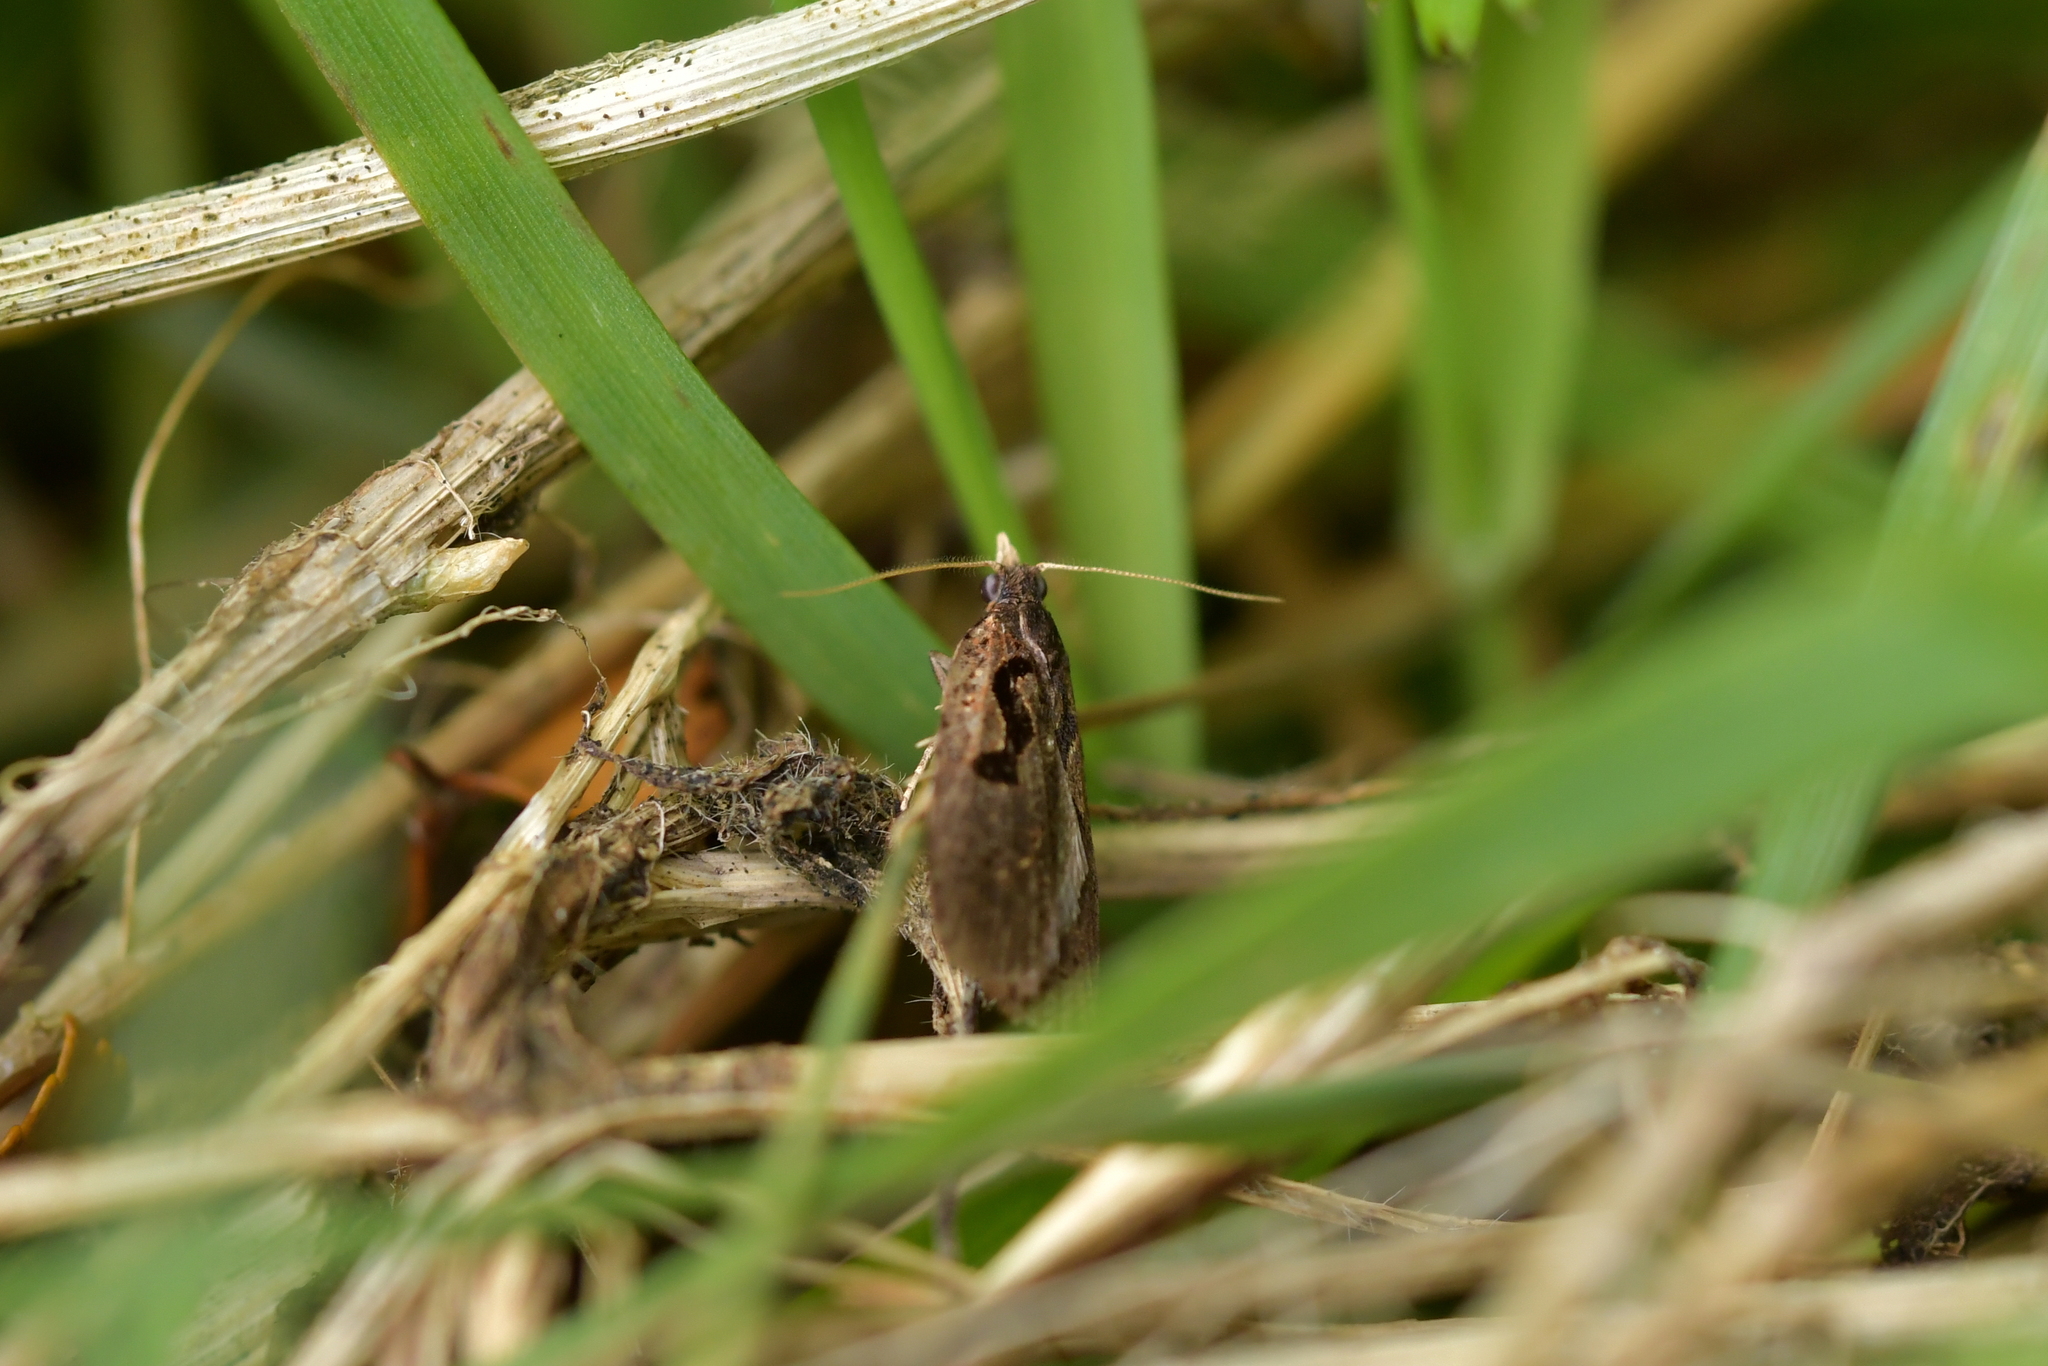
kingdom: Animalia
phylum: Arthropoda
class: Insecta
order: Lepidoptera
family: Tortricidae
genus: Cnephasia
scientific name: Cnephasia jactatana
